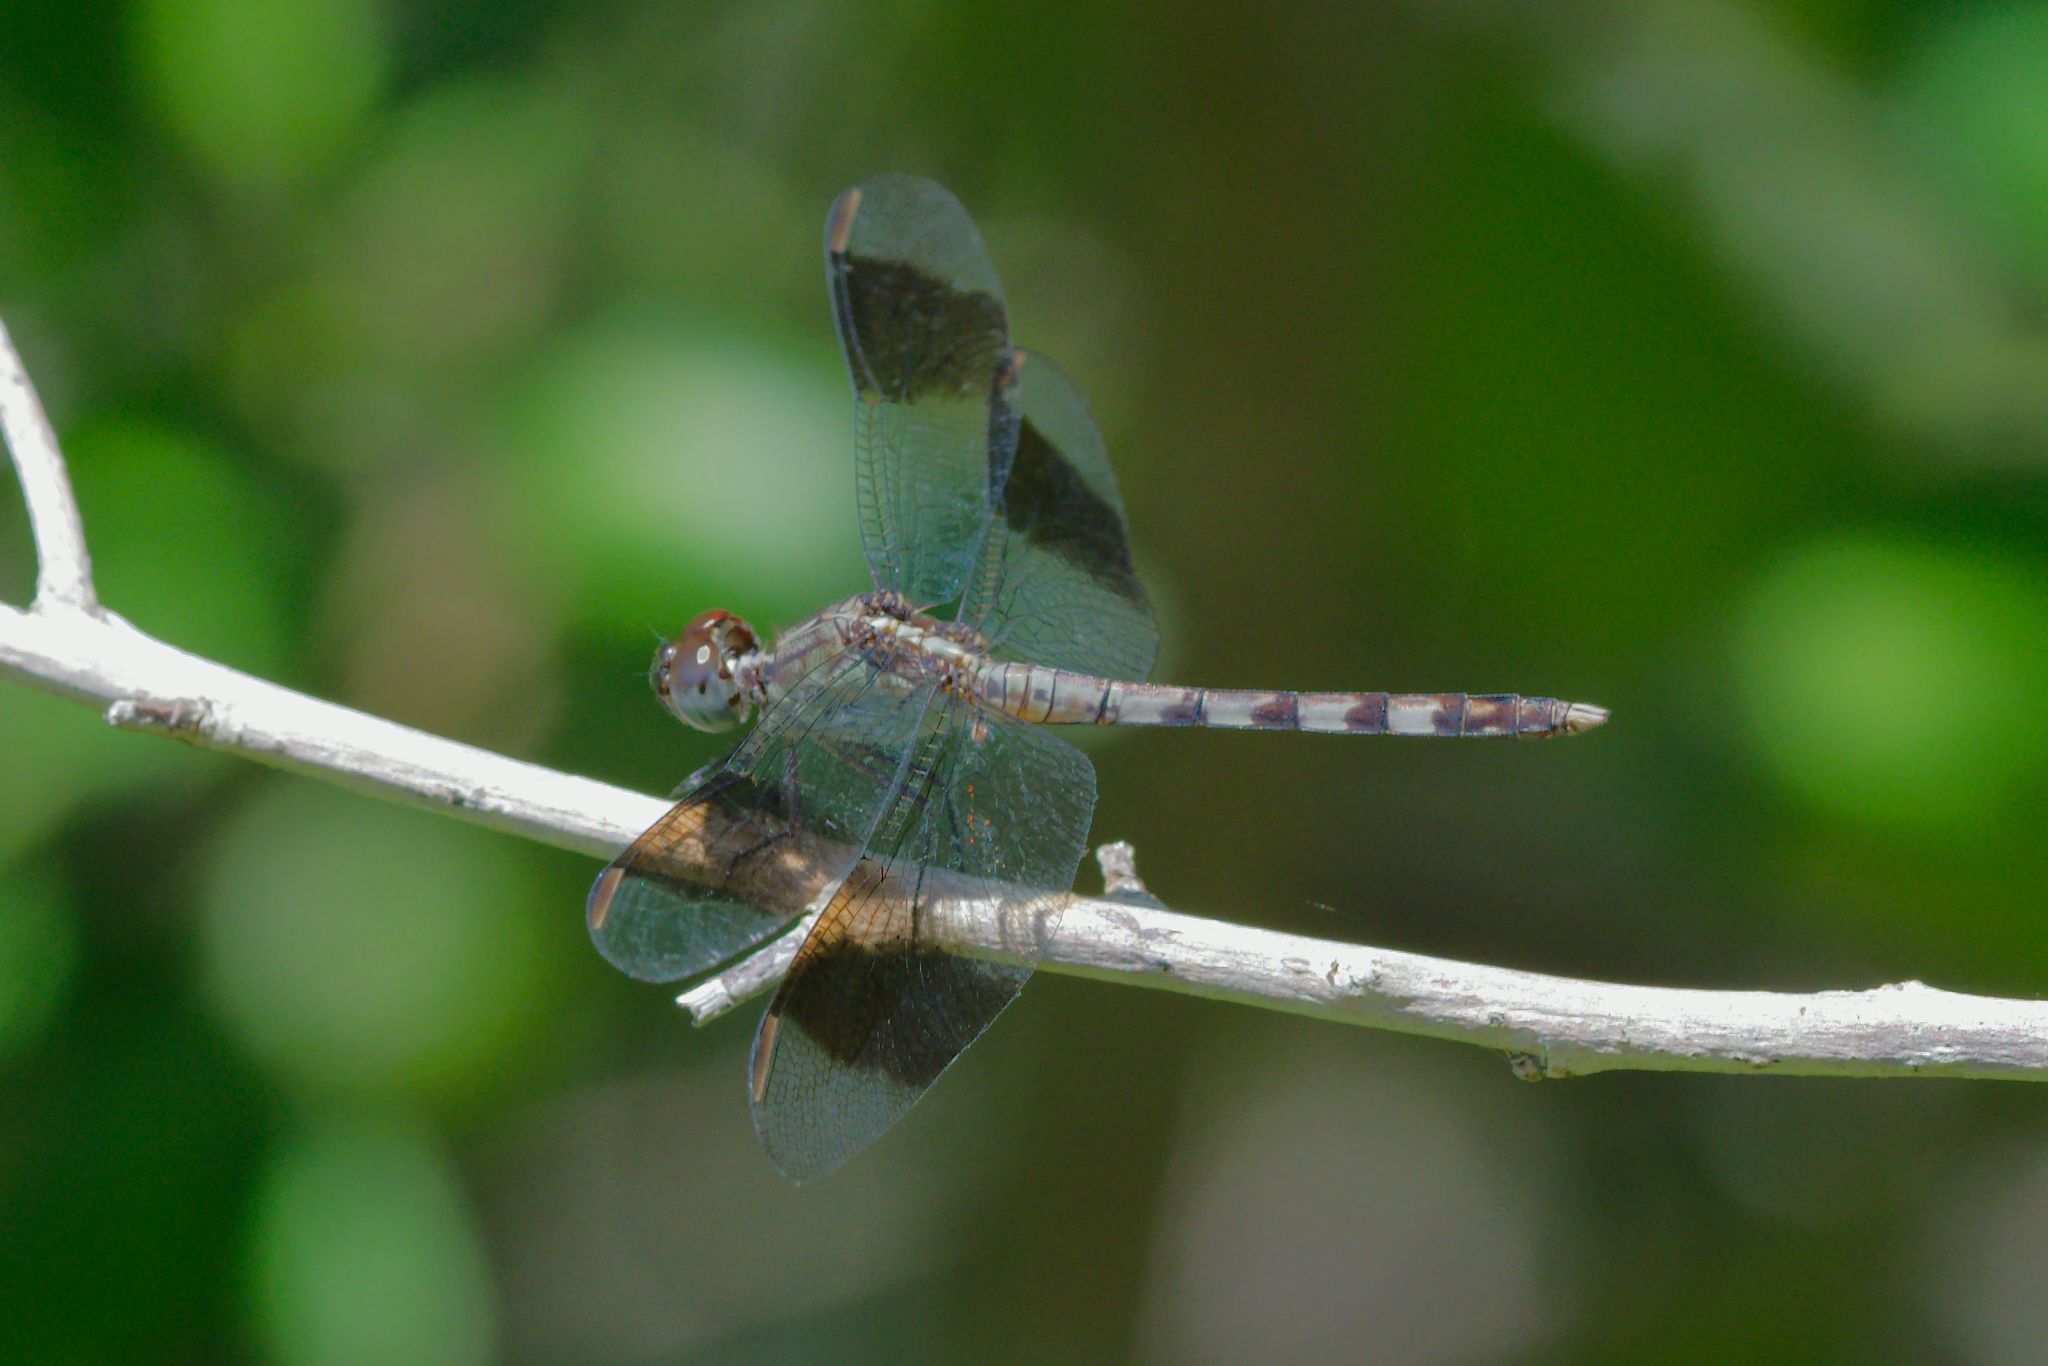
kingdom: Animalia
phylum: Arthropoda
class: Insecta
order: Odonata
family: Libellulidae
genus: Erythrodiplax
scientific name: Erythrodiplax umbrata
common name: Band-winged dragonlet
